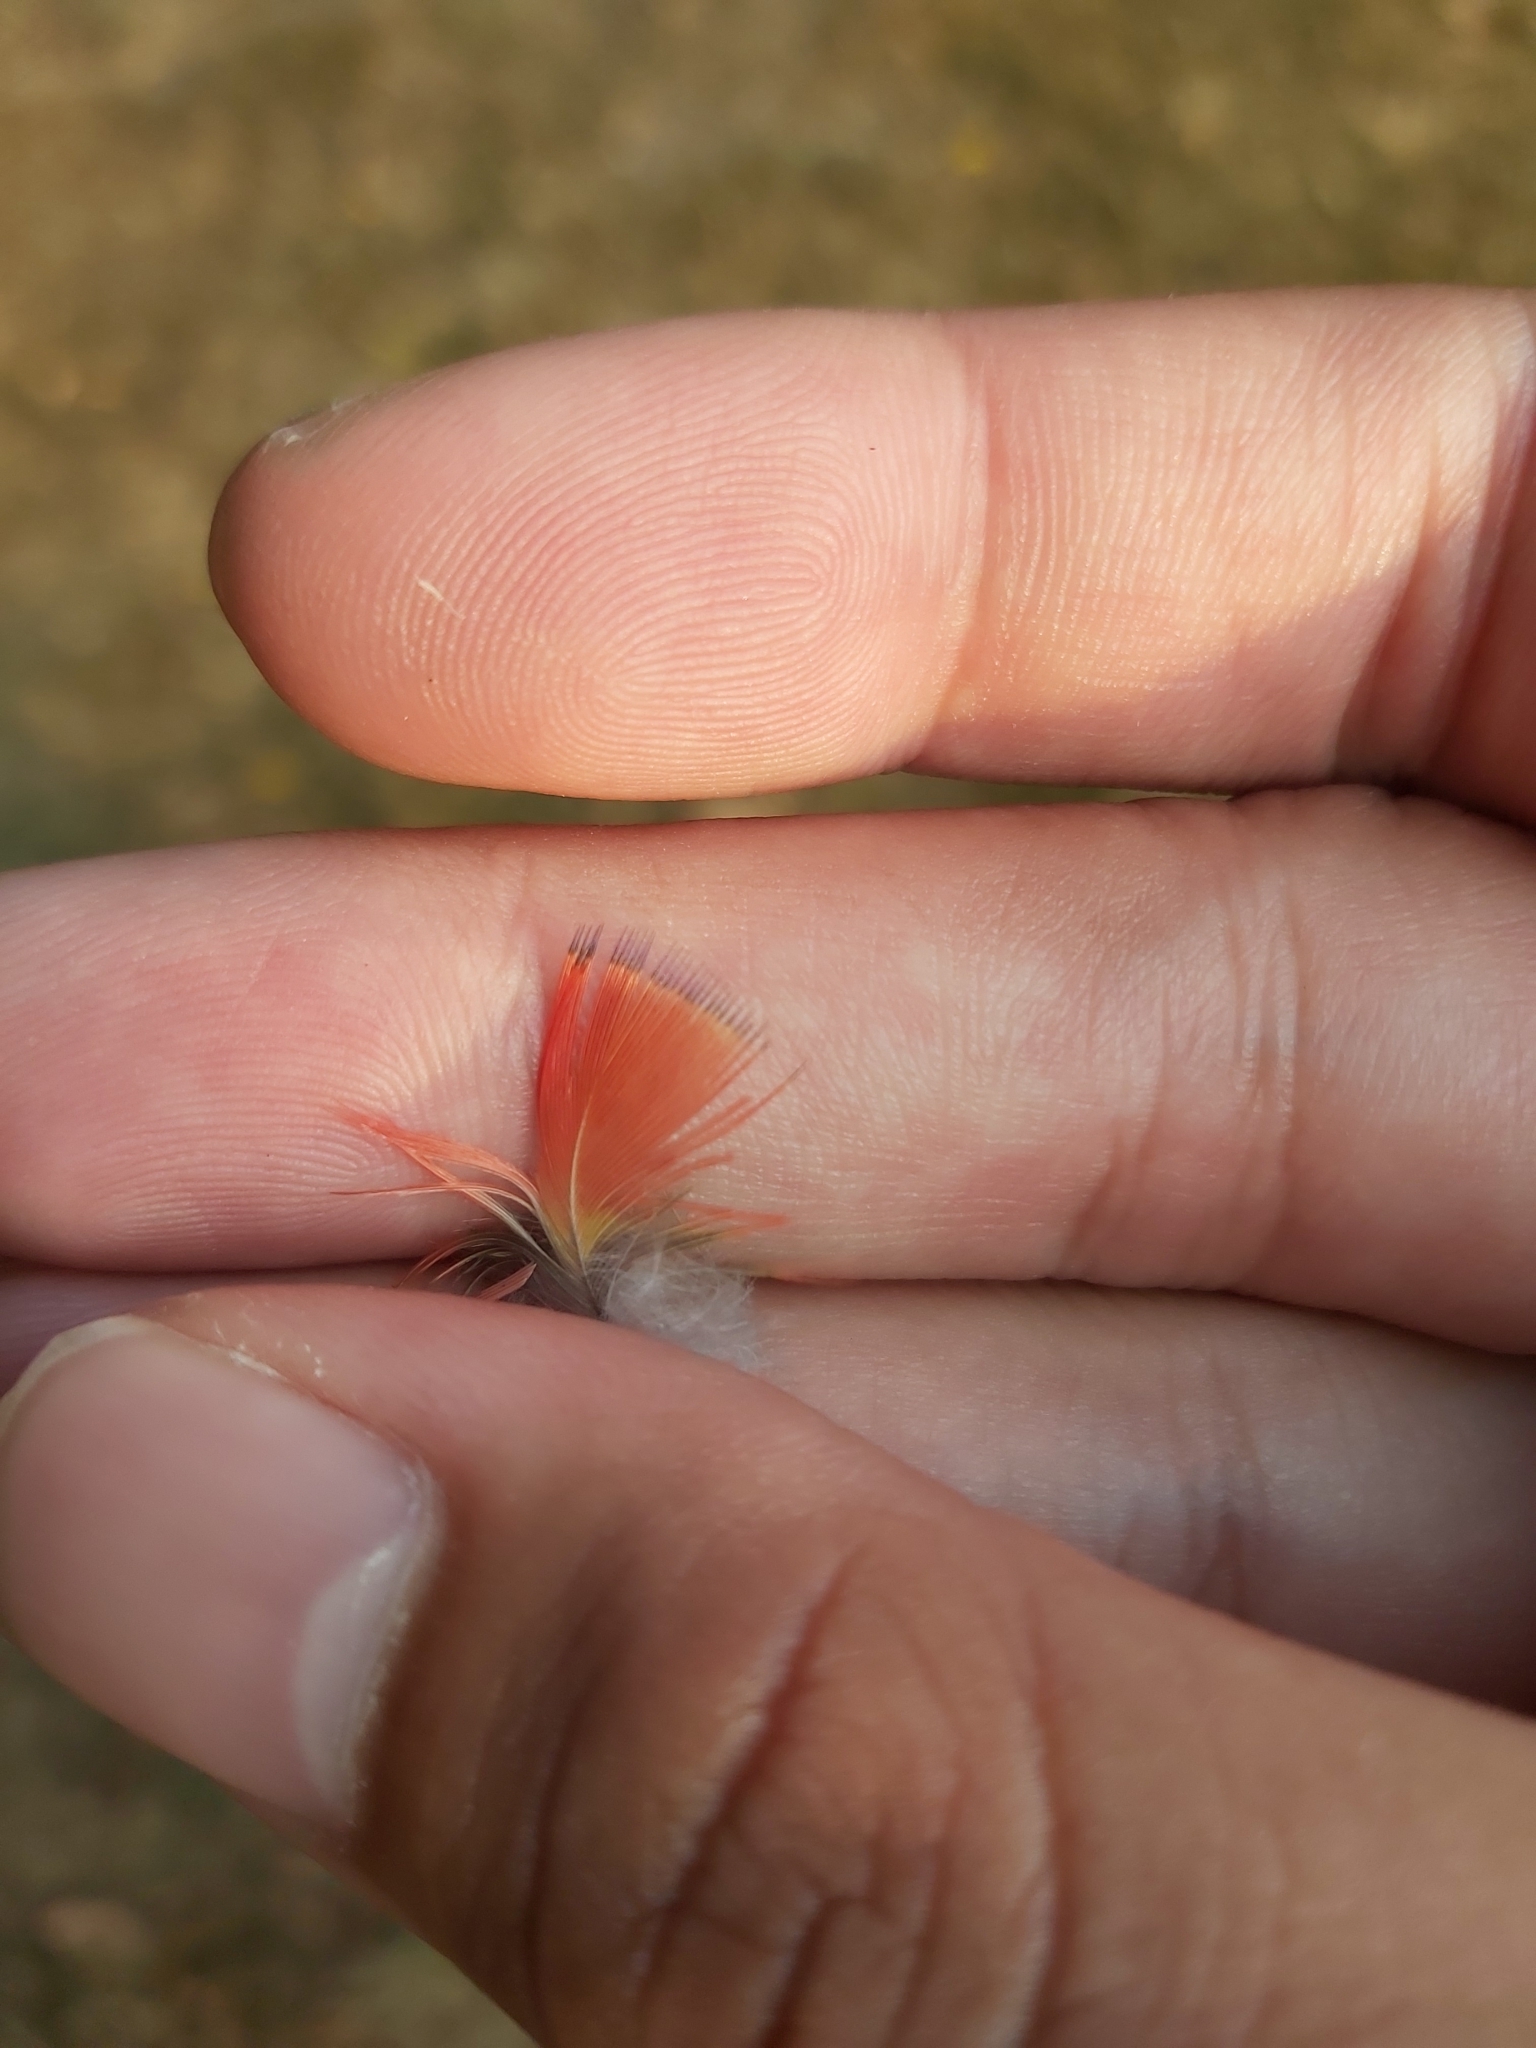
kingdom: Animalia
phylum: Chordata
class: Aves
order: Psittaciformes
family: Psittacidae
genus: Trichoglossus
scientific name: Trichoglossus haematodus
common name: Coconut lorikeet
